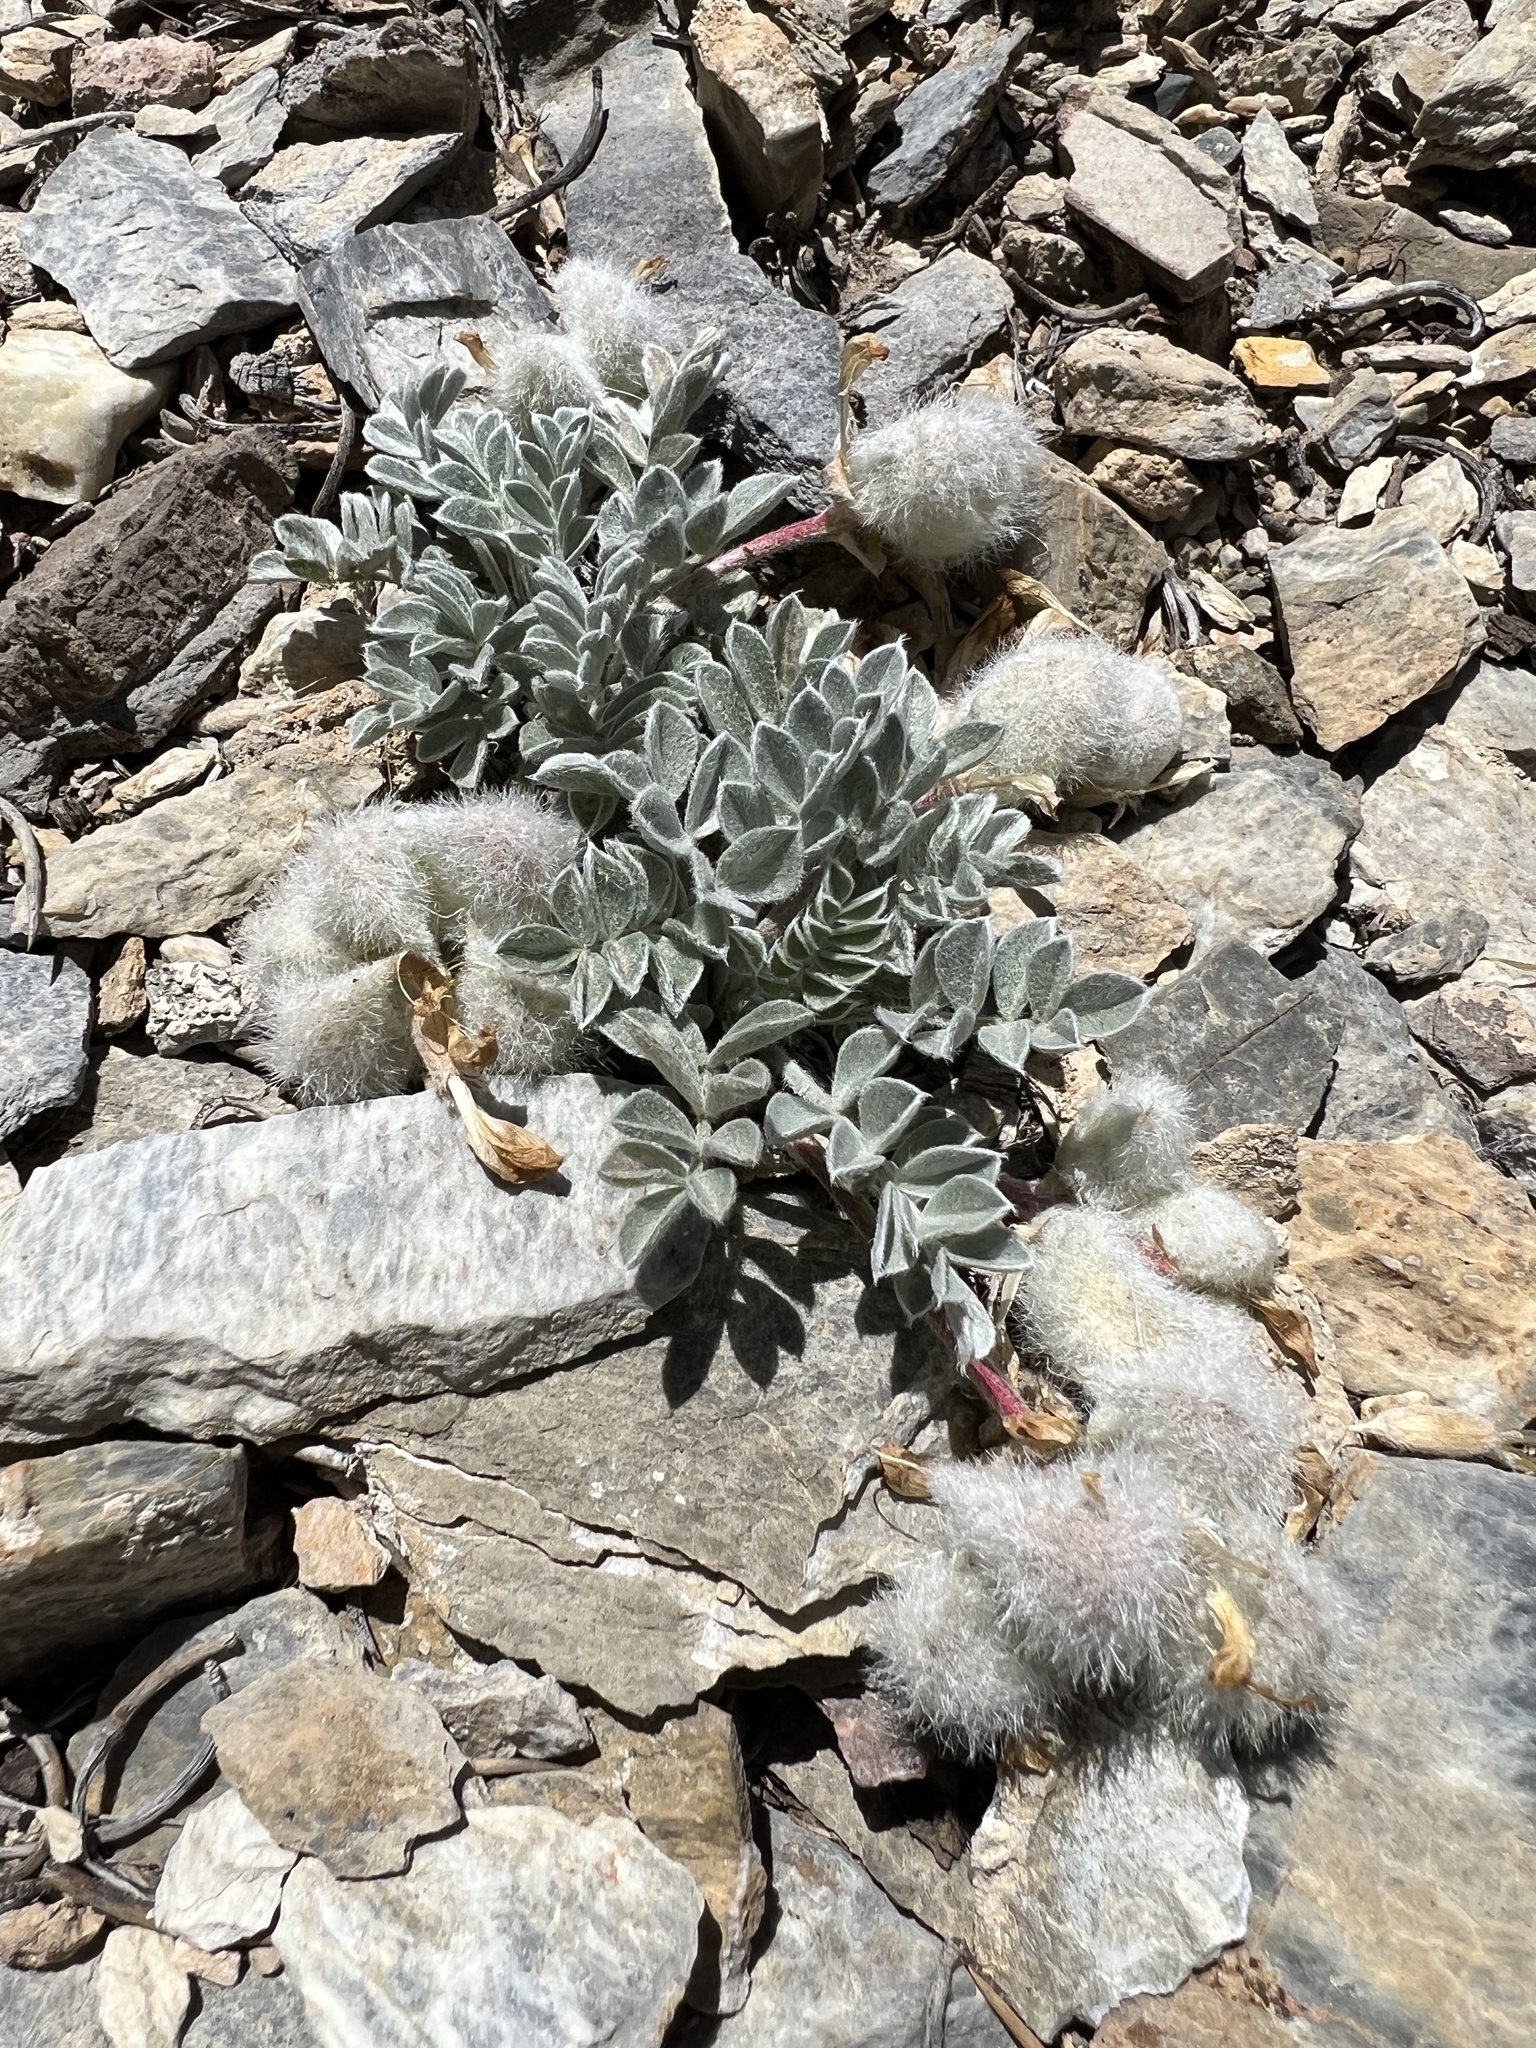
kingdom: Plantae
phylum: Tracheophyta
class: Magnoliopsida
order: Fabales
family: Fabaceae
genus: Astragalus
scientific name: Astragalus coccineus
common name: Scarlet milk-vetch
